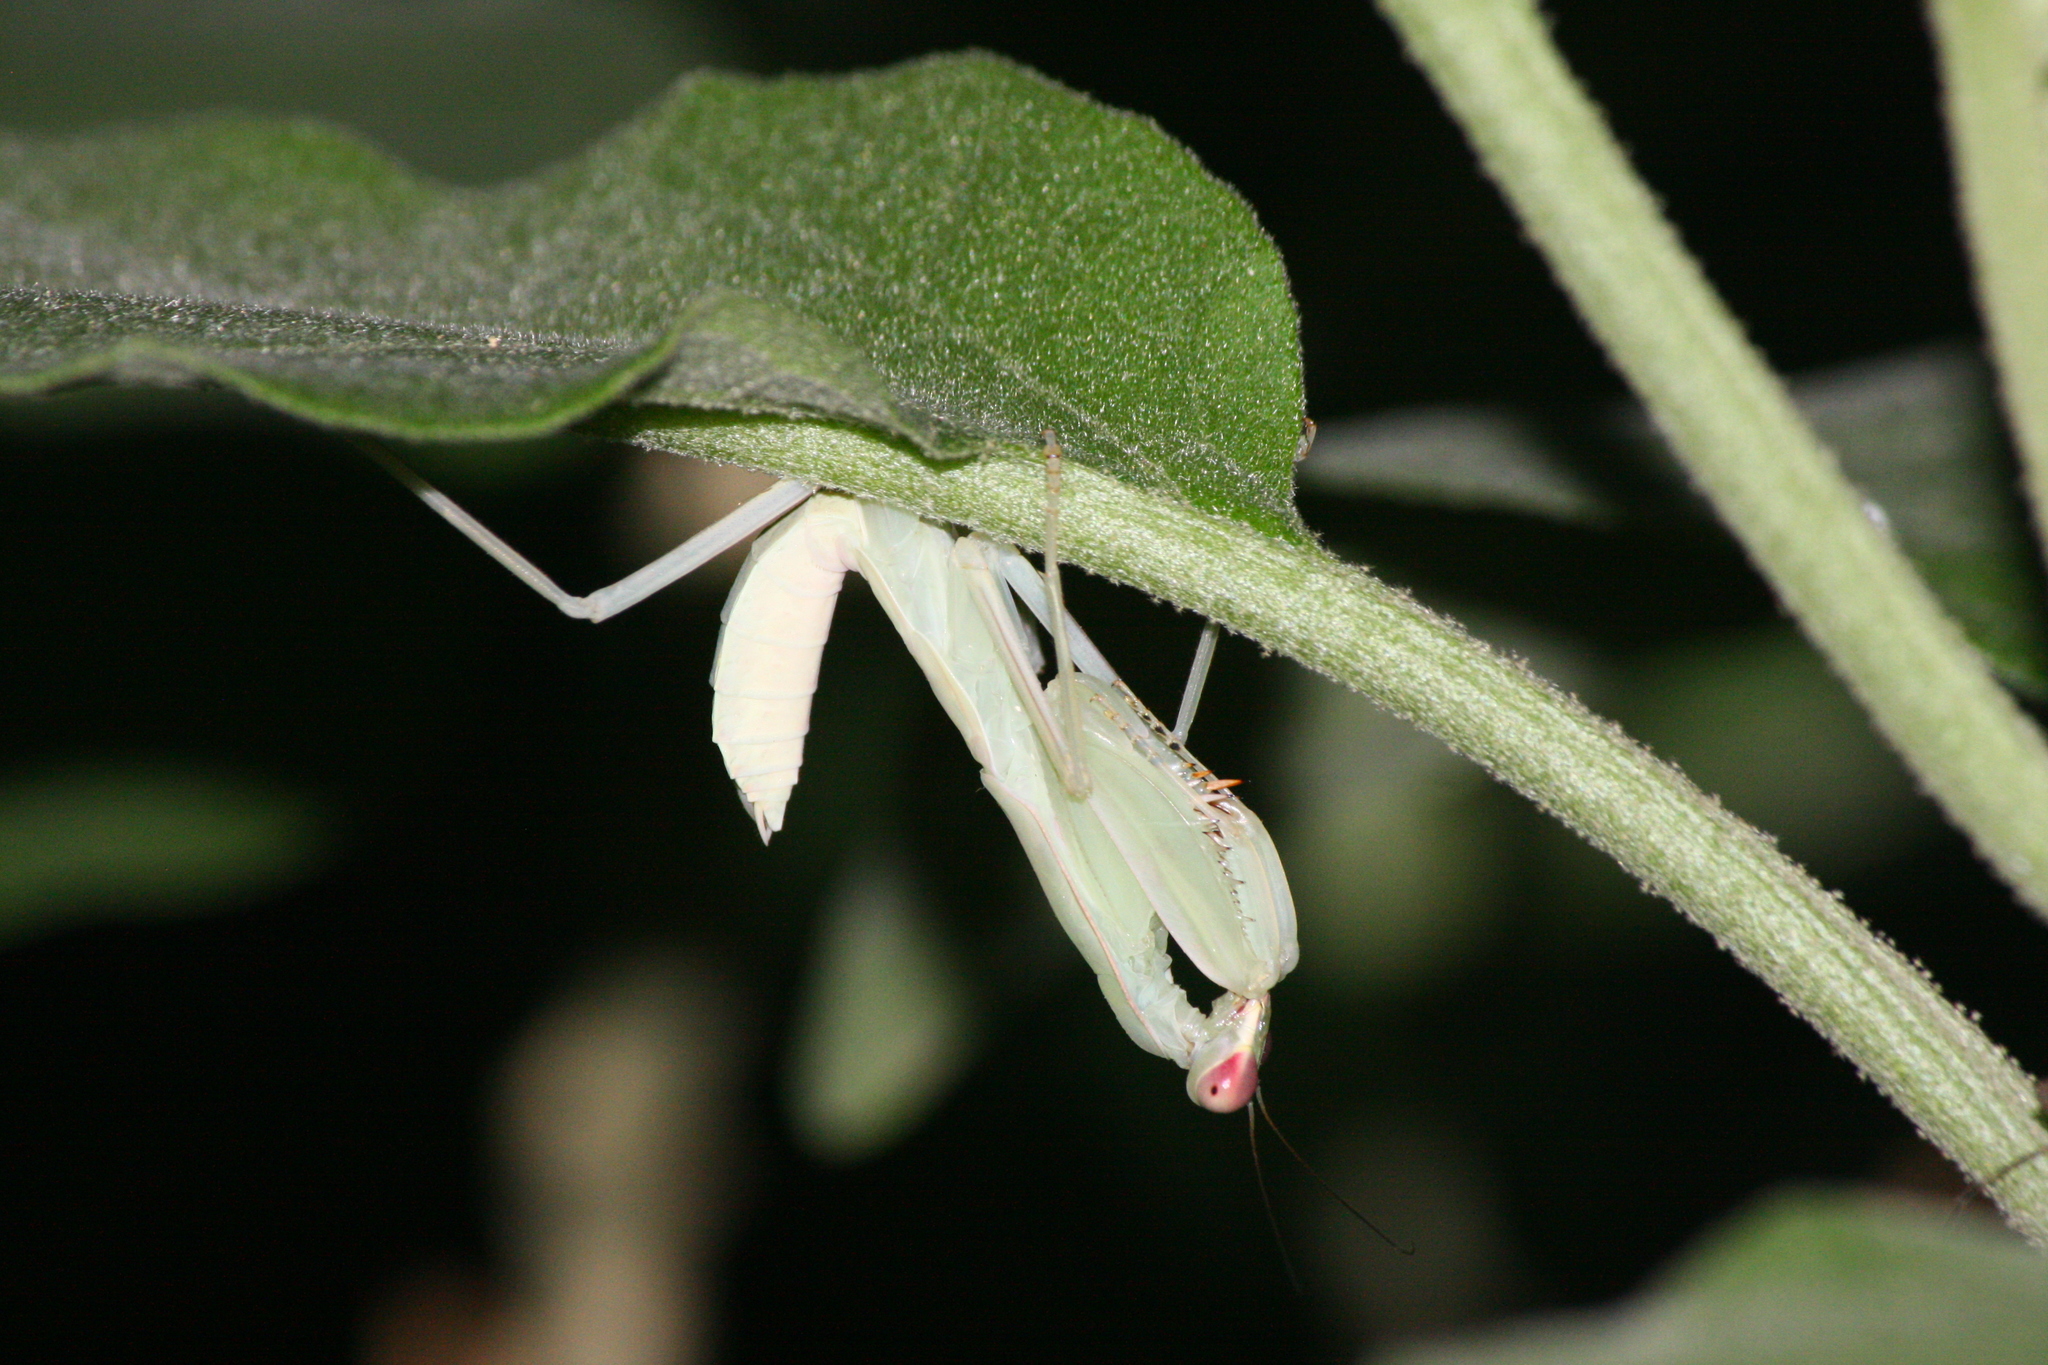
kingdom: Animalia
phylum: Arthropoda
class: Insecta
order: Mantodea
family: Mantidae
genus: Hierodula
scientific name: Hierodula patellifera
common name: Asian mantis
